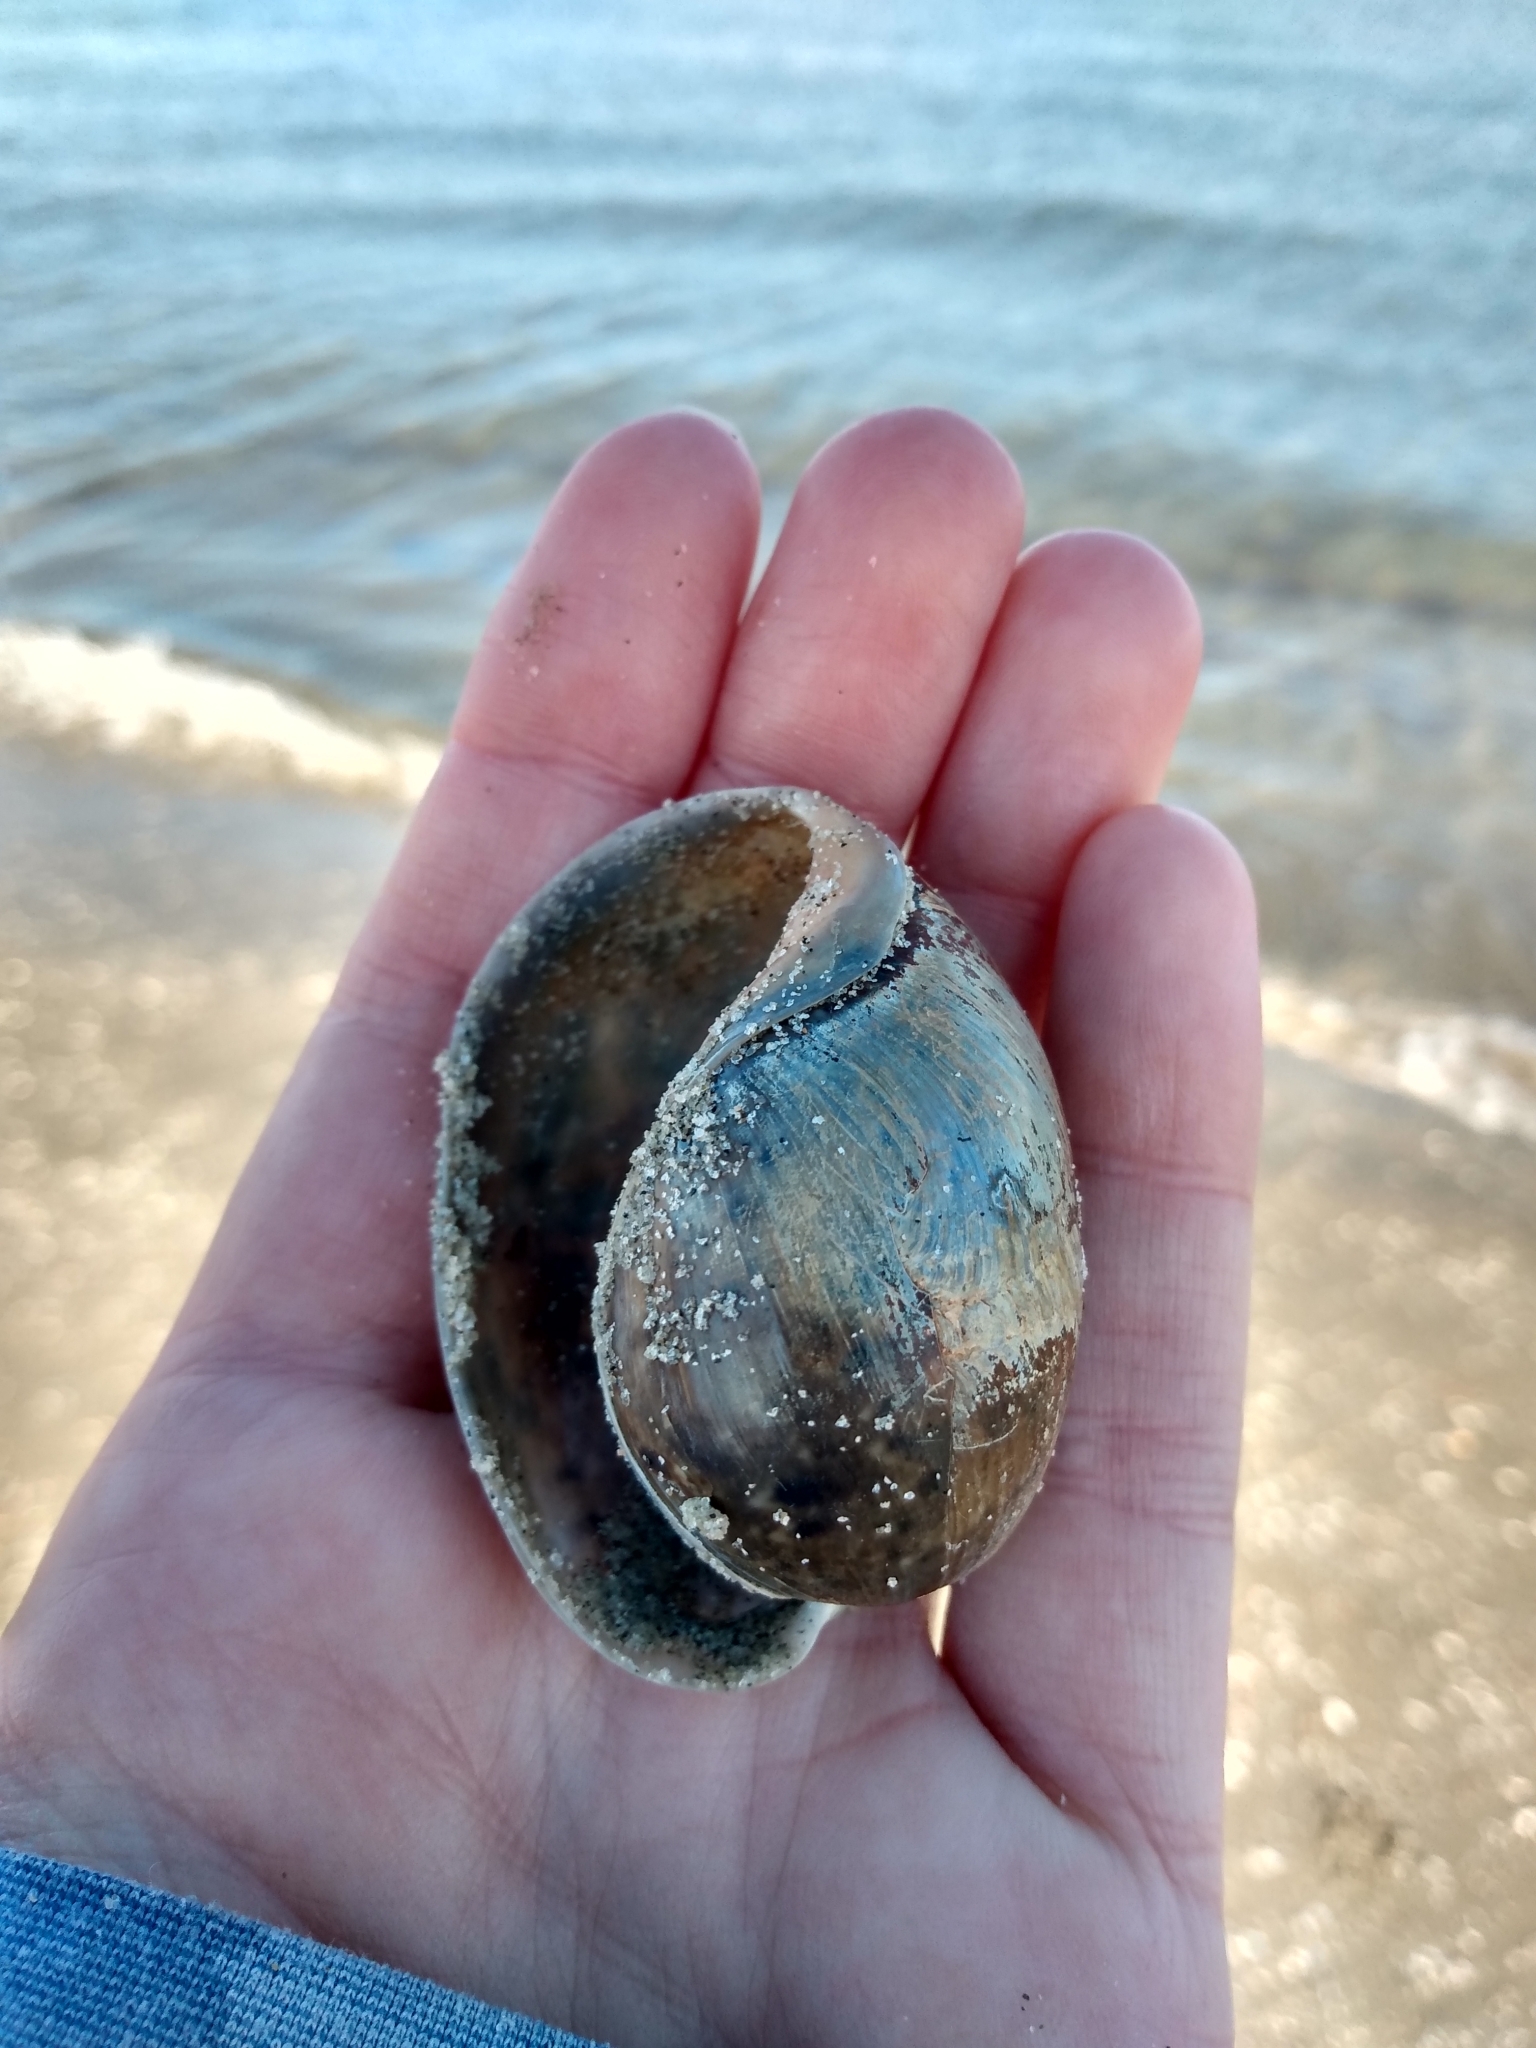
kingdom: Animalia
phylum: Mollusca
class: Gastropoda
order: Cephalaspidea
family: Bullidae
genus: Bulla
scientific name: Bulla gouldiana
